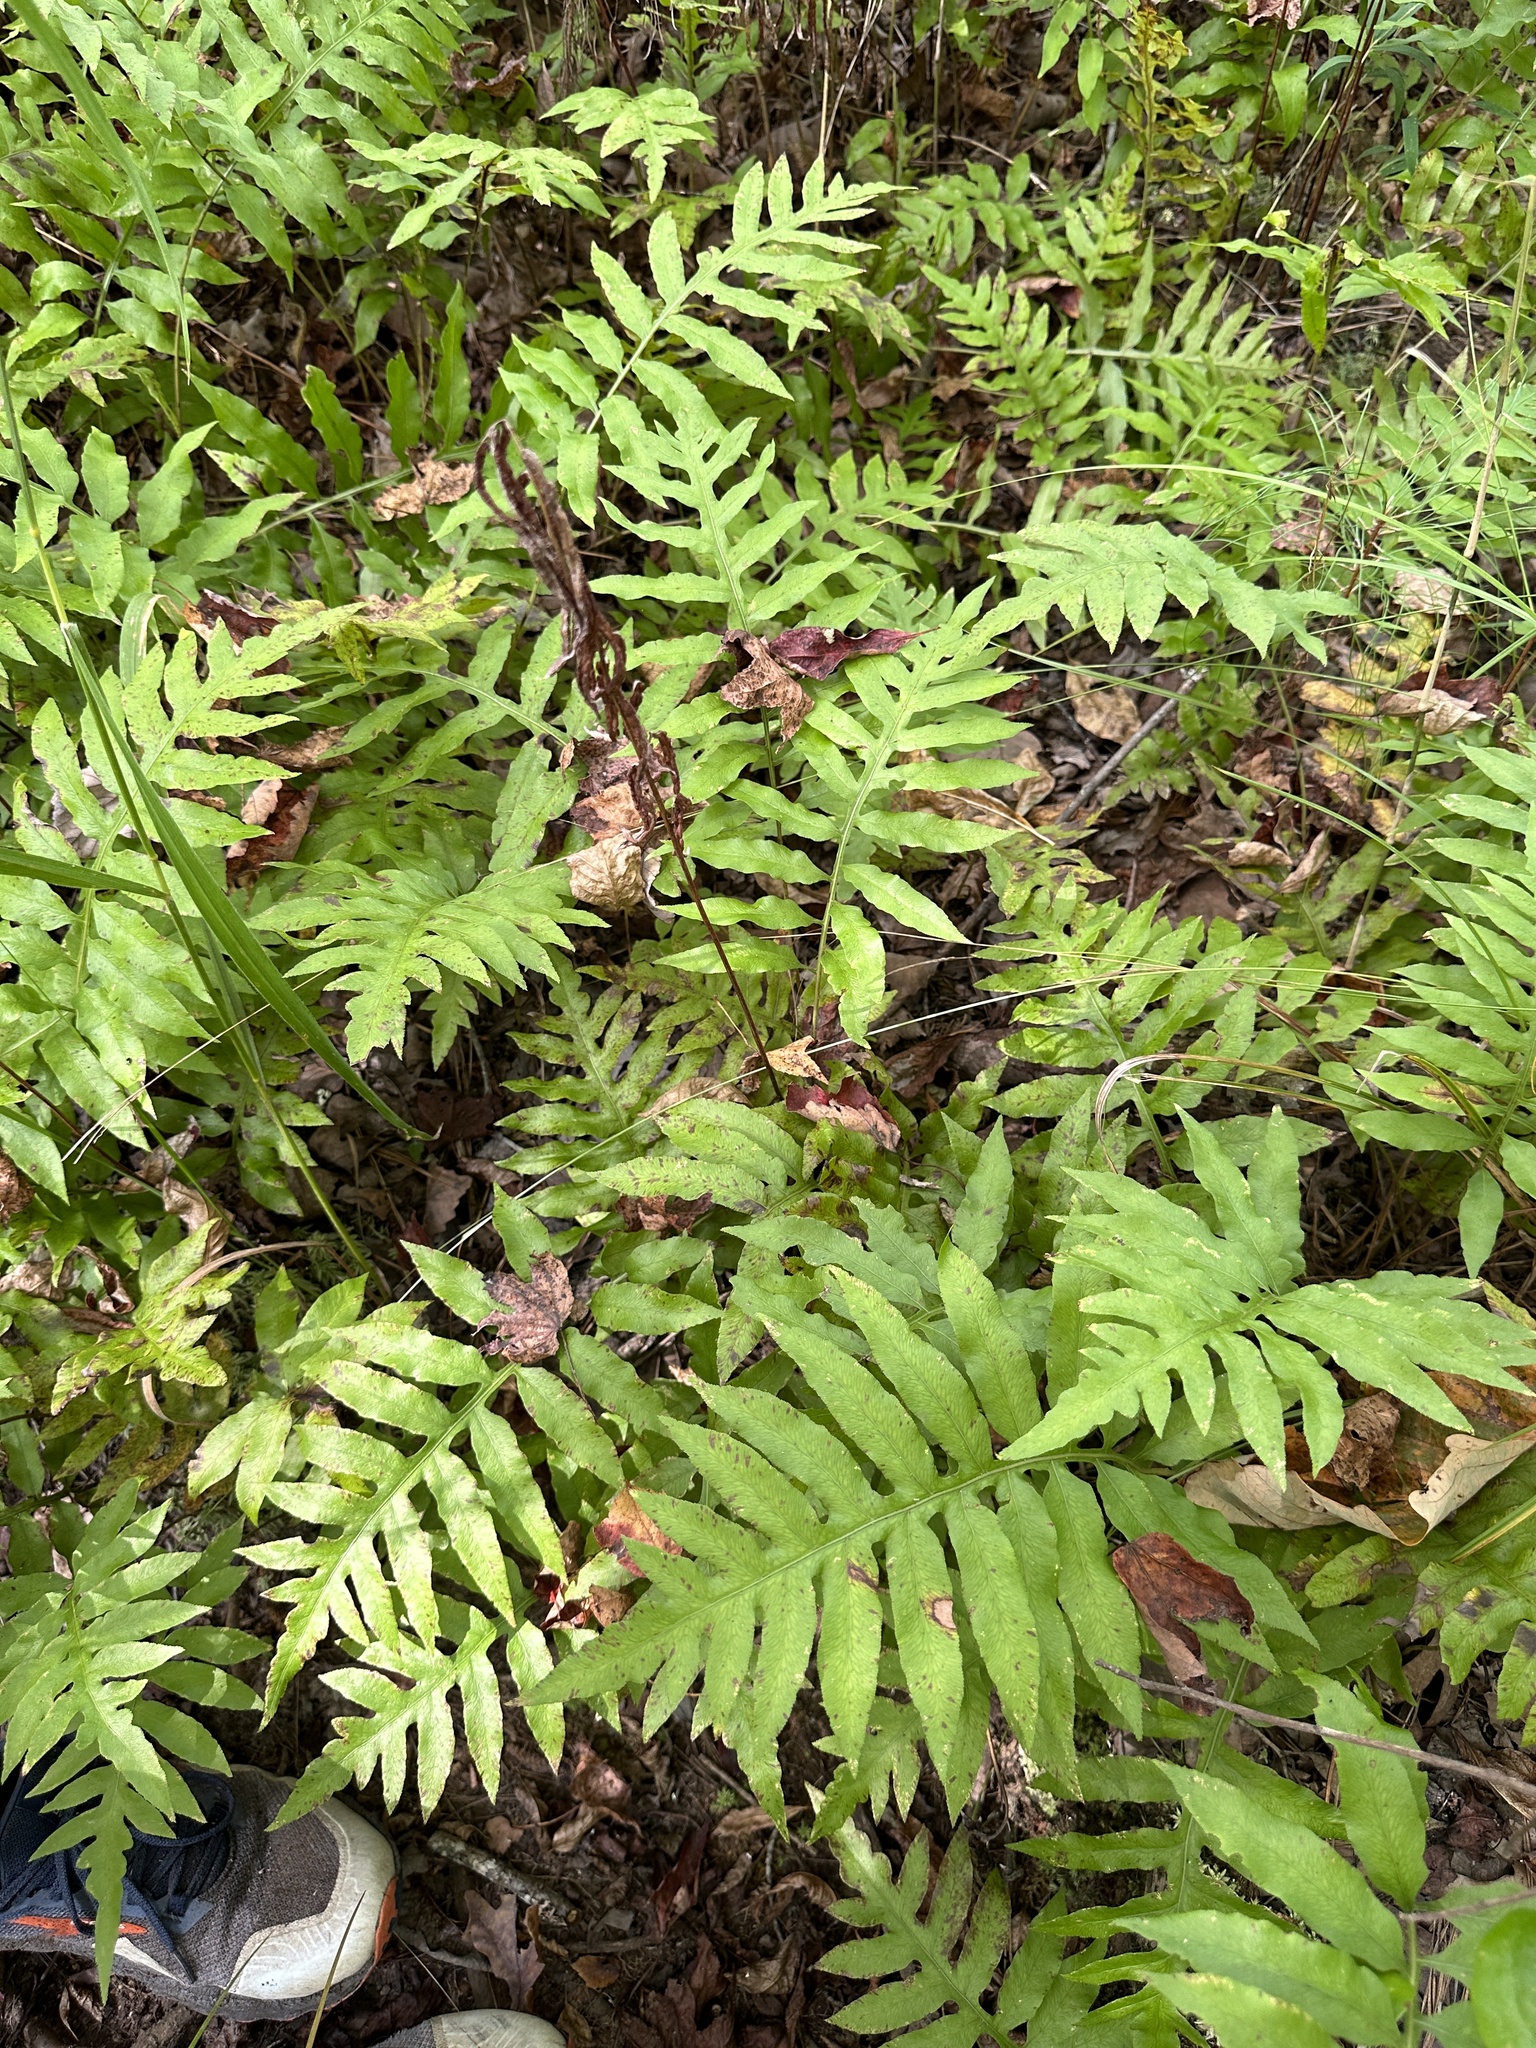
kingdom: Plantae
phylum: Tracheophyta
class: Polypodiopsida
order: Polypodiales
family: Blechnaceae
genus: Lorinseria
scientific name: Lorinseria areolata
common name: Dwarf chain fern
